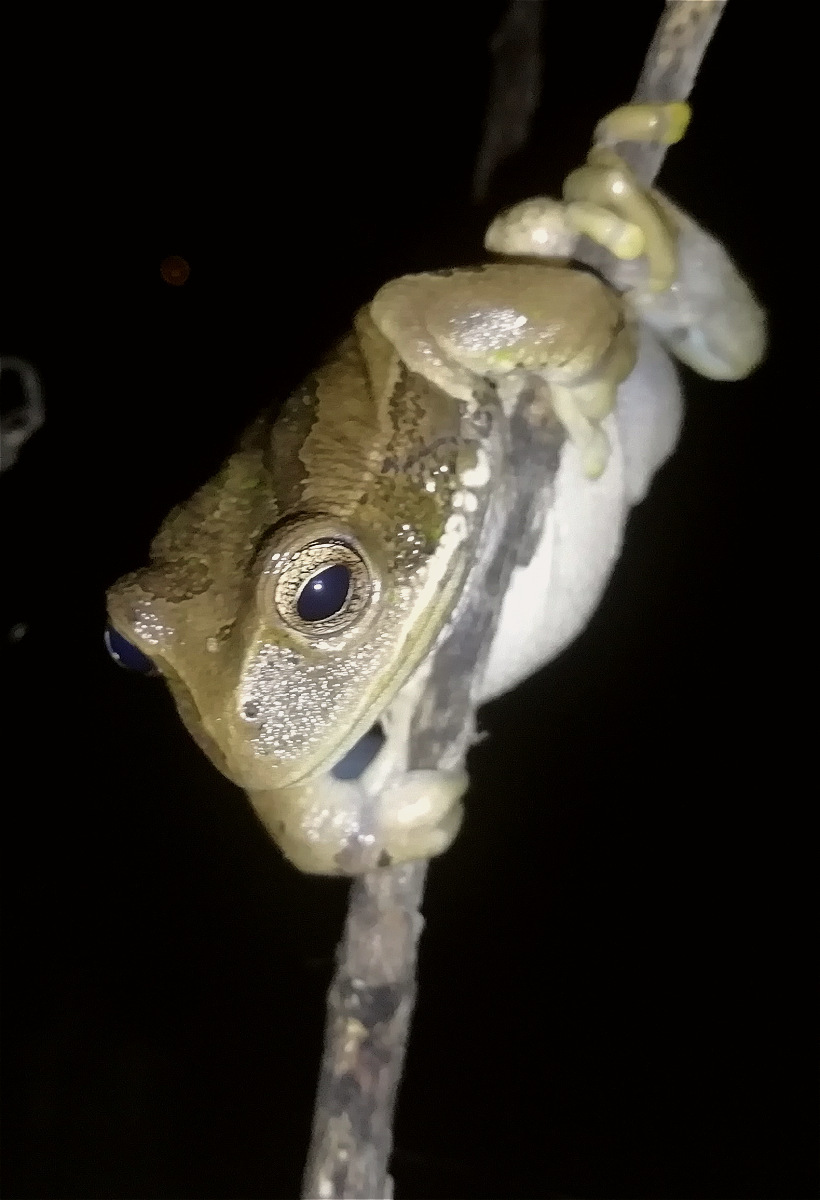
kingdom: Animalia
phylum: Chordata
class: Amphibia
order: Anura
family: Hemiphractidae
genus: Gastrotheca
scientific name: Gastrotheca cuencana
